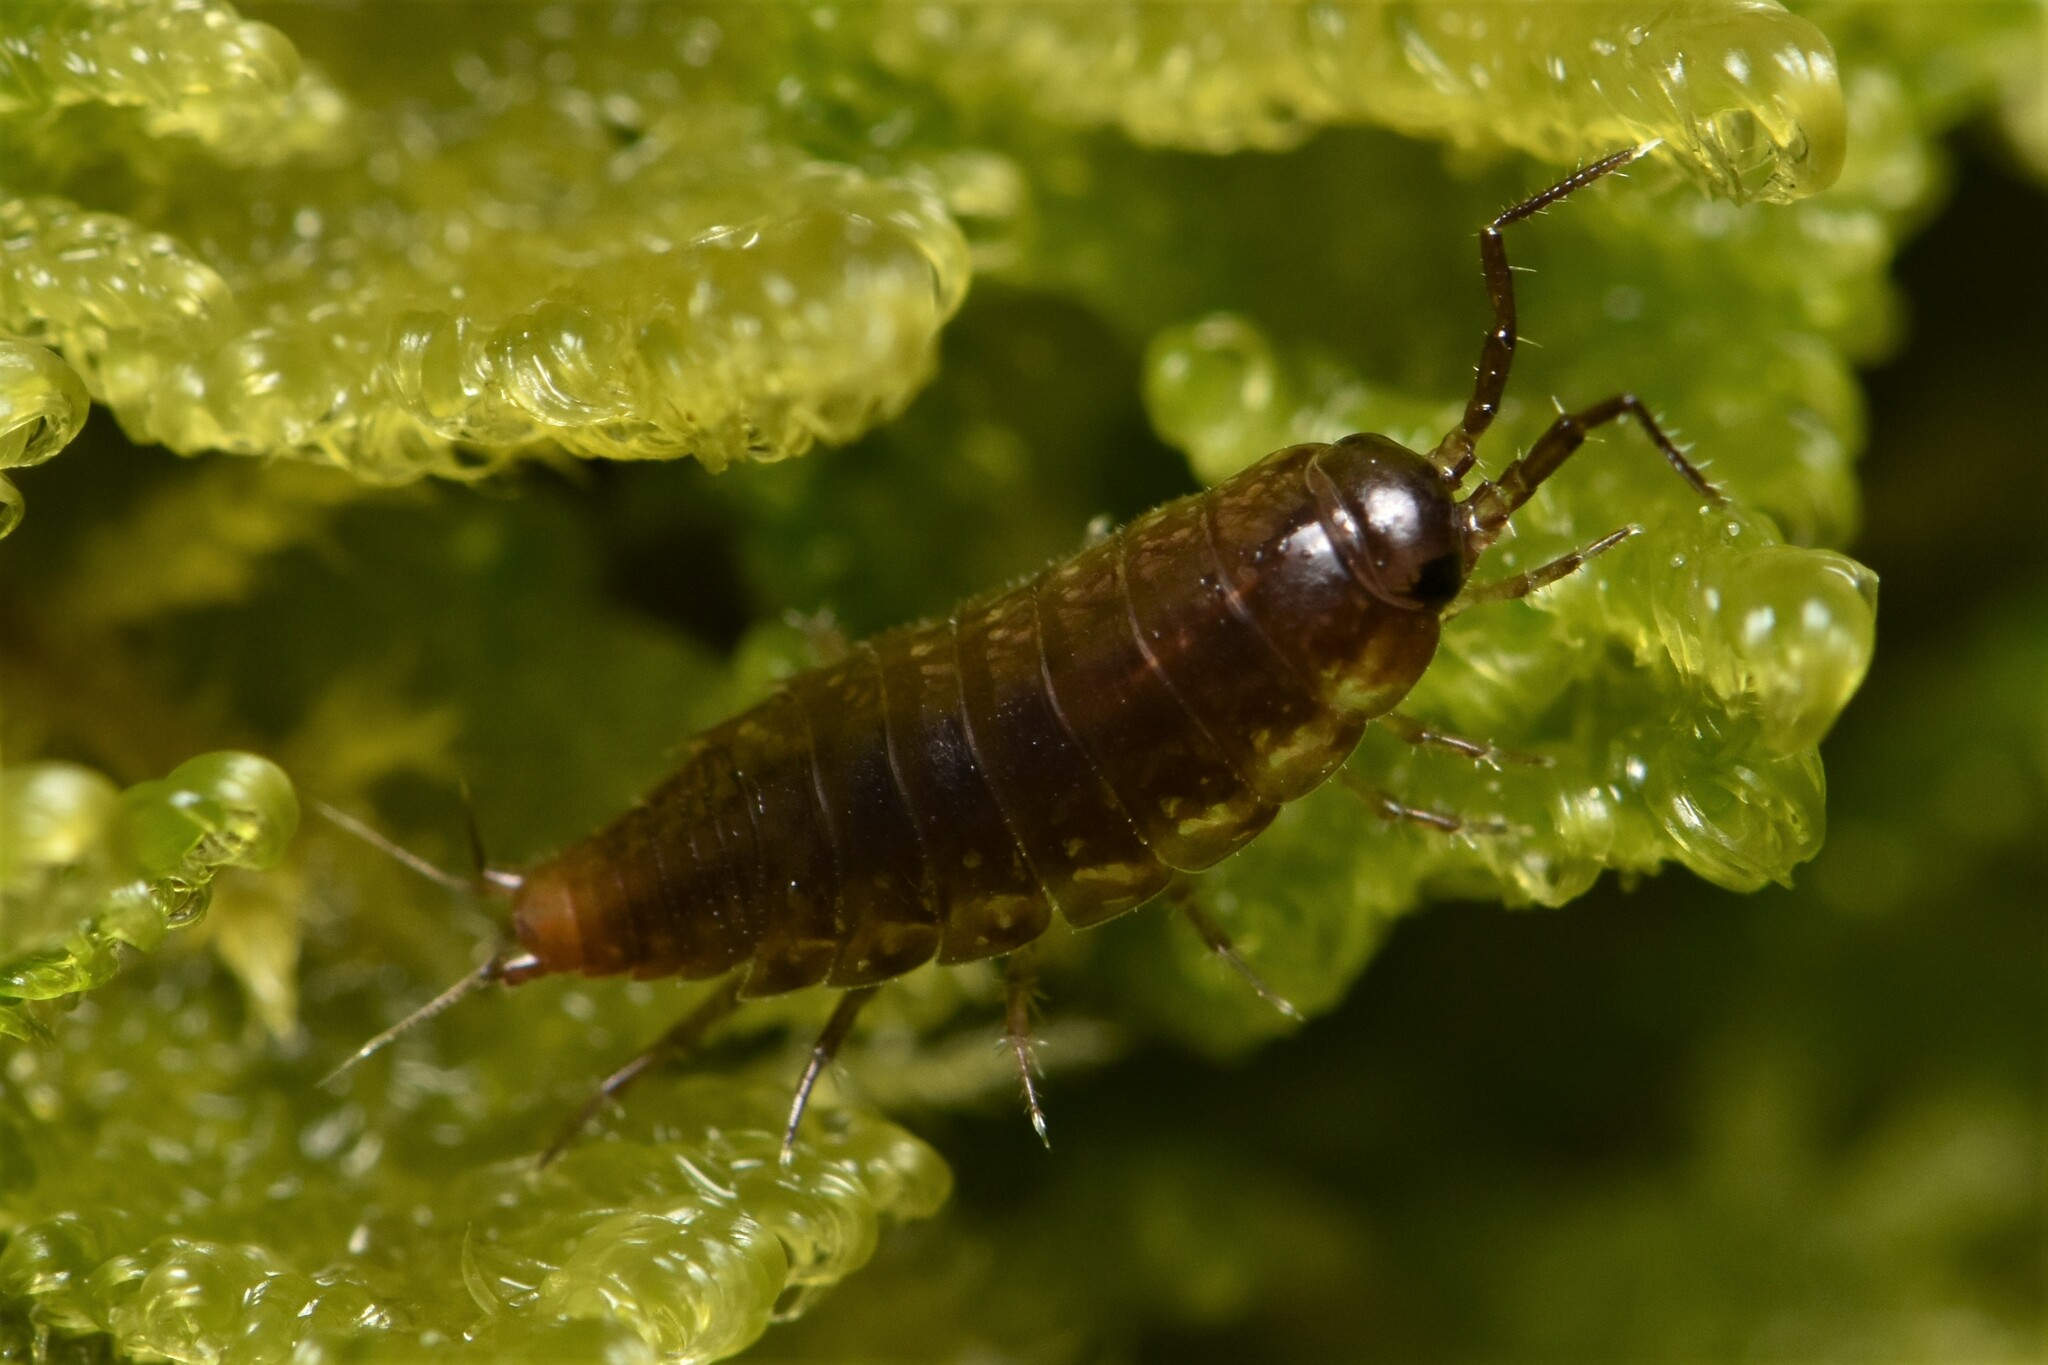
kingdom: Animalia
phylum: Arthropoda
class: Malacostraca
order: Isopoda
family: Ligiidae
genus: Ligidium
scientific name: Ligidium gracile
